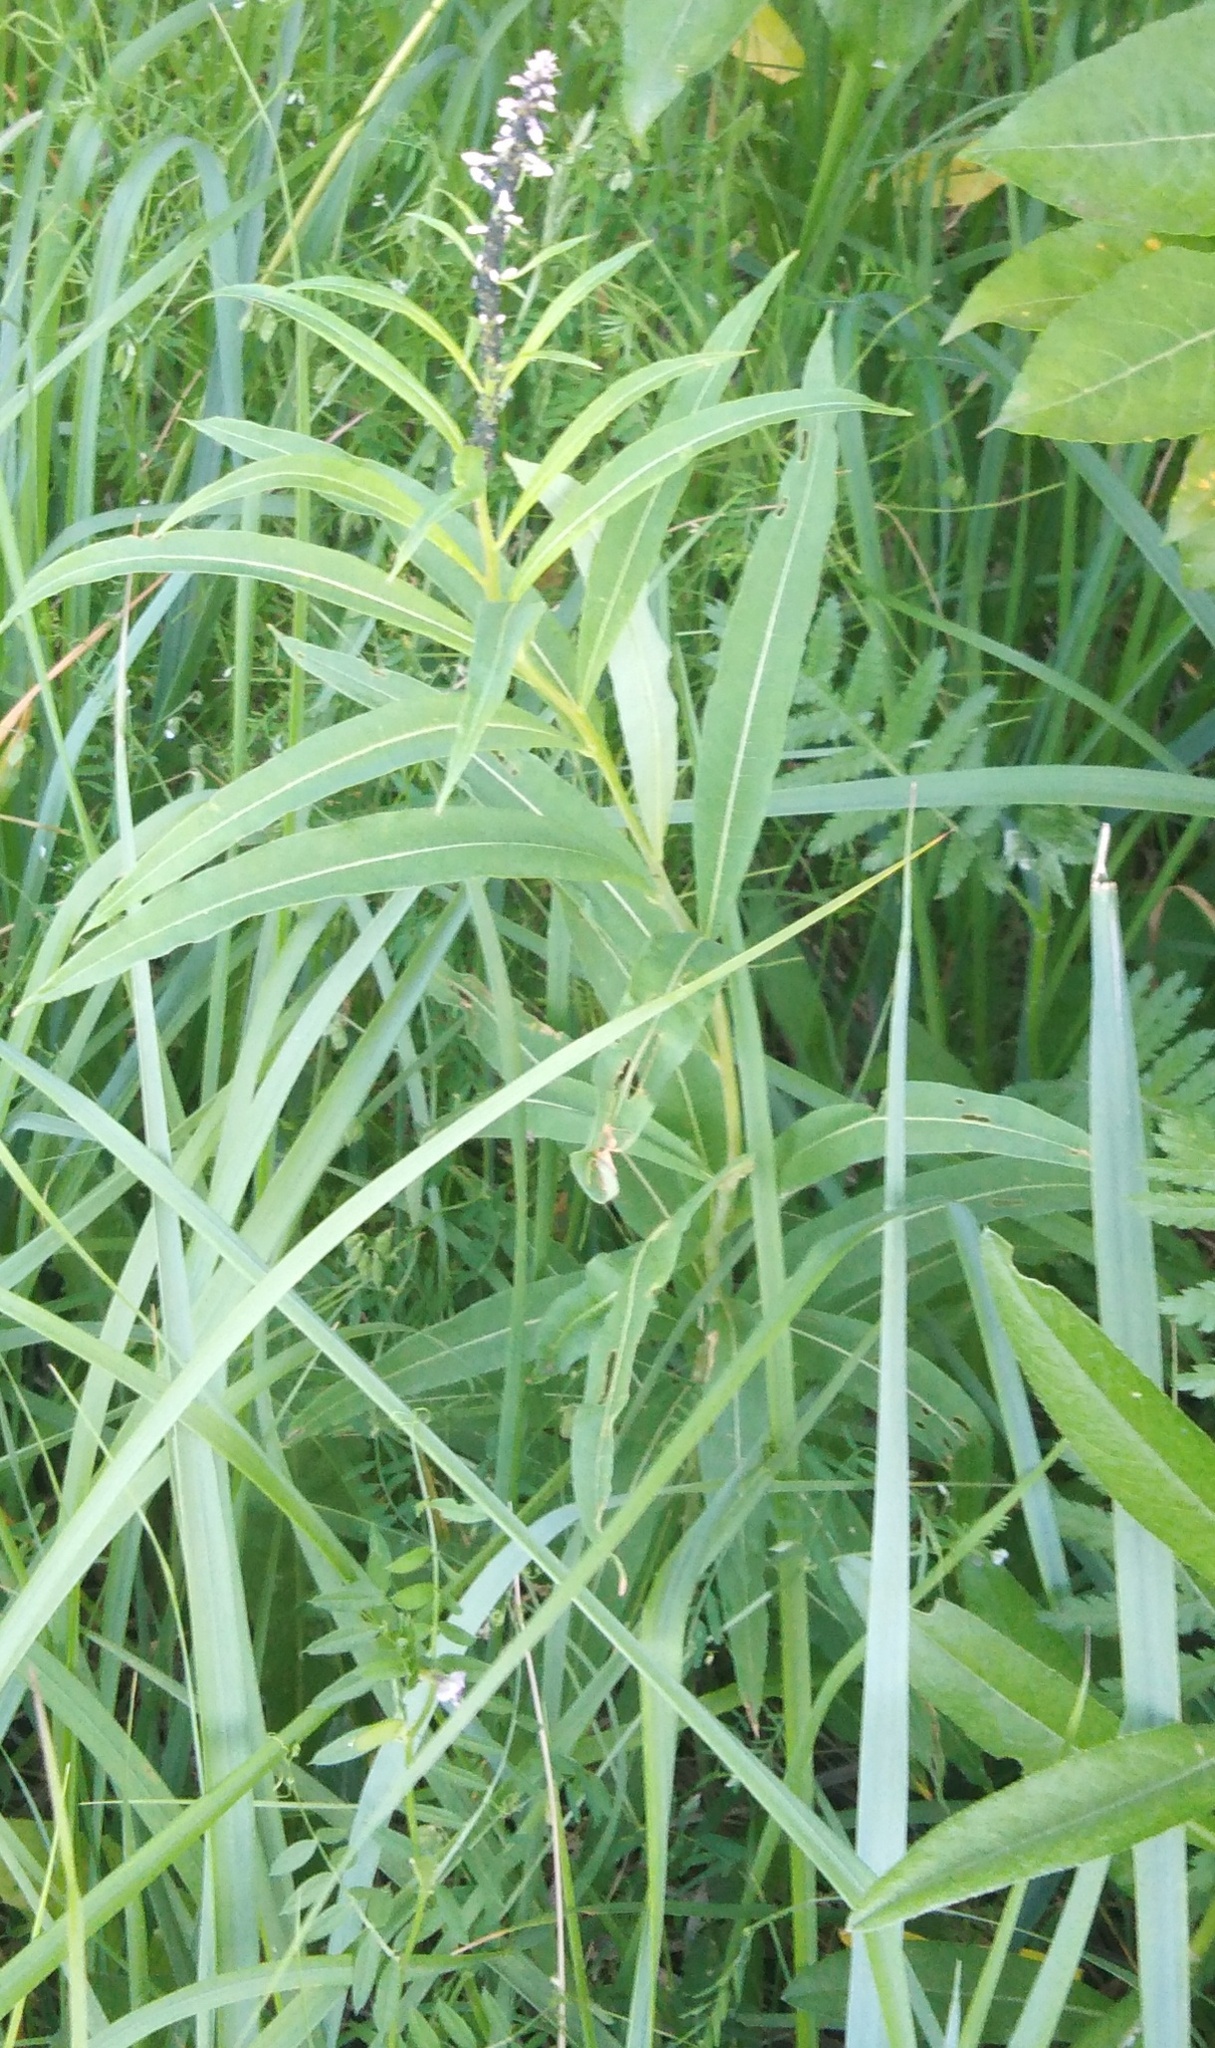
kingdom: Plantae
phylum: Tracheophyta
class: Magnoliopsida
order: Myrtales
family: Onagraceae
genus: Chamaenerion
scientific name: Chamaenerion angustifolium
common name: Fireweed
